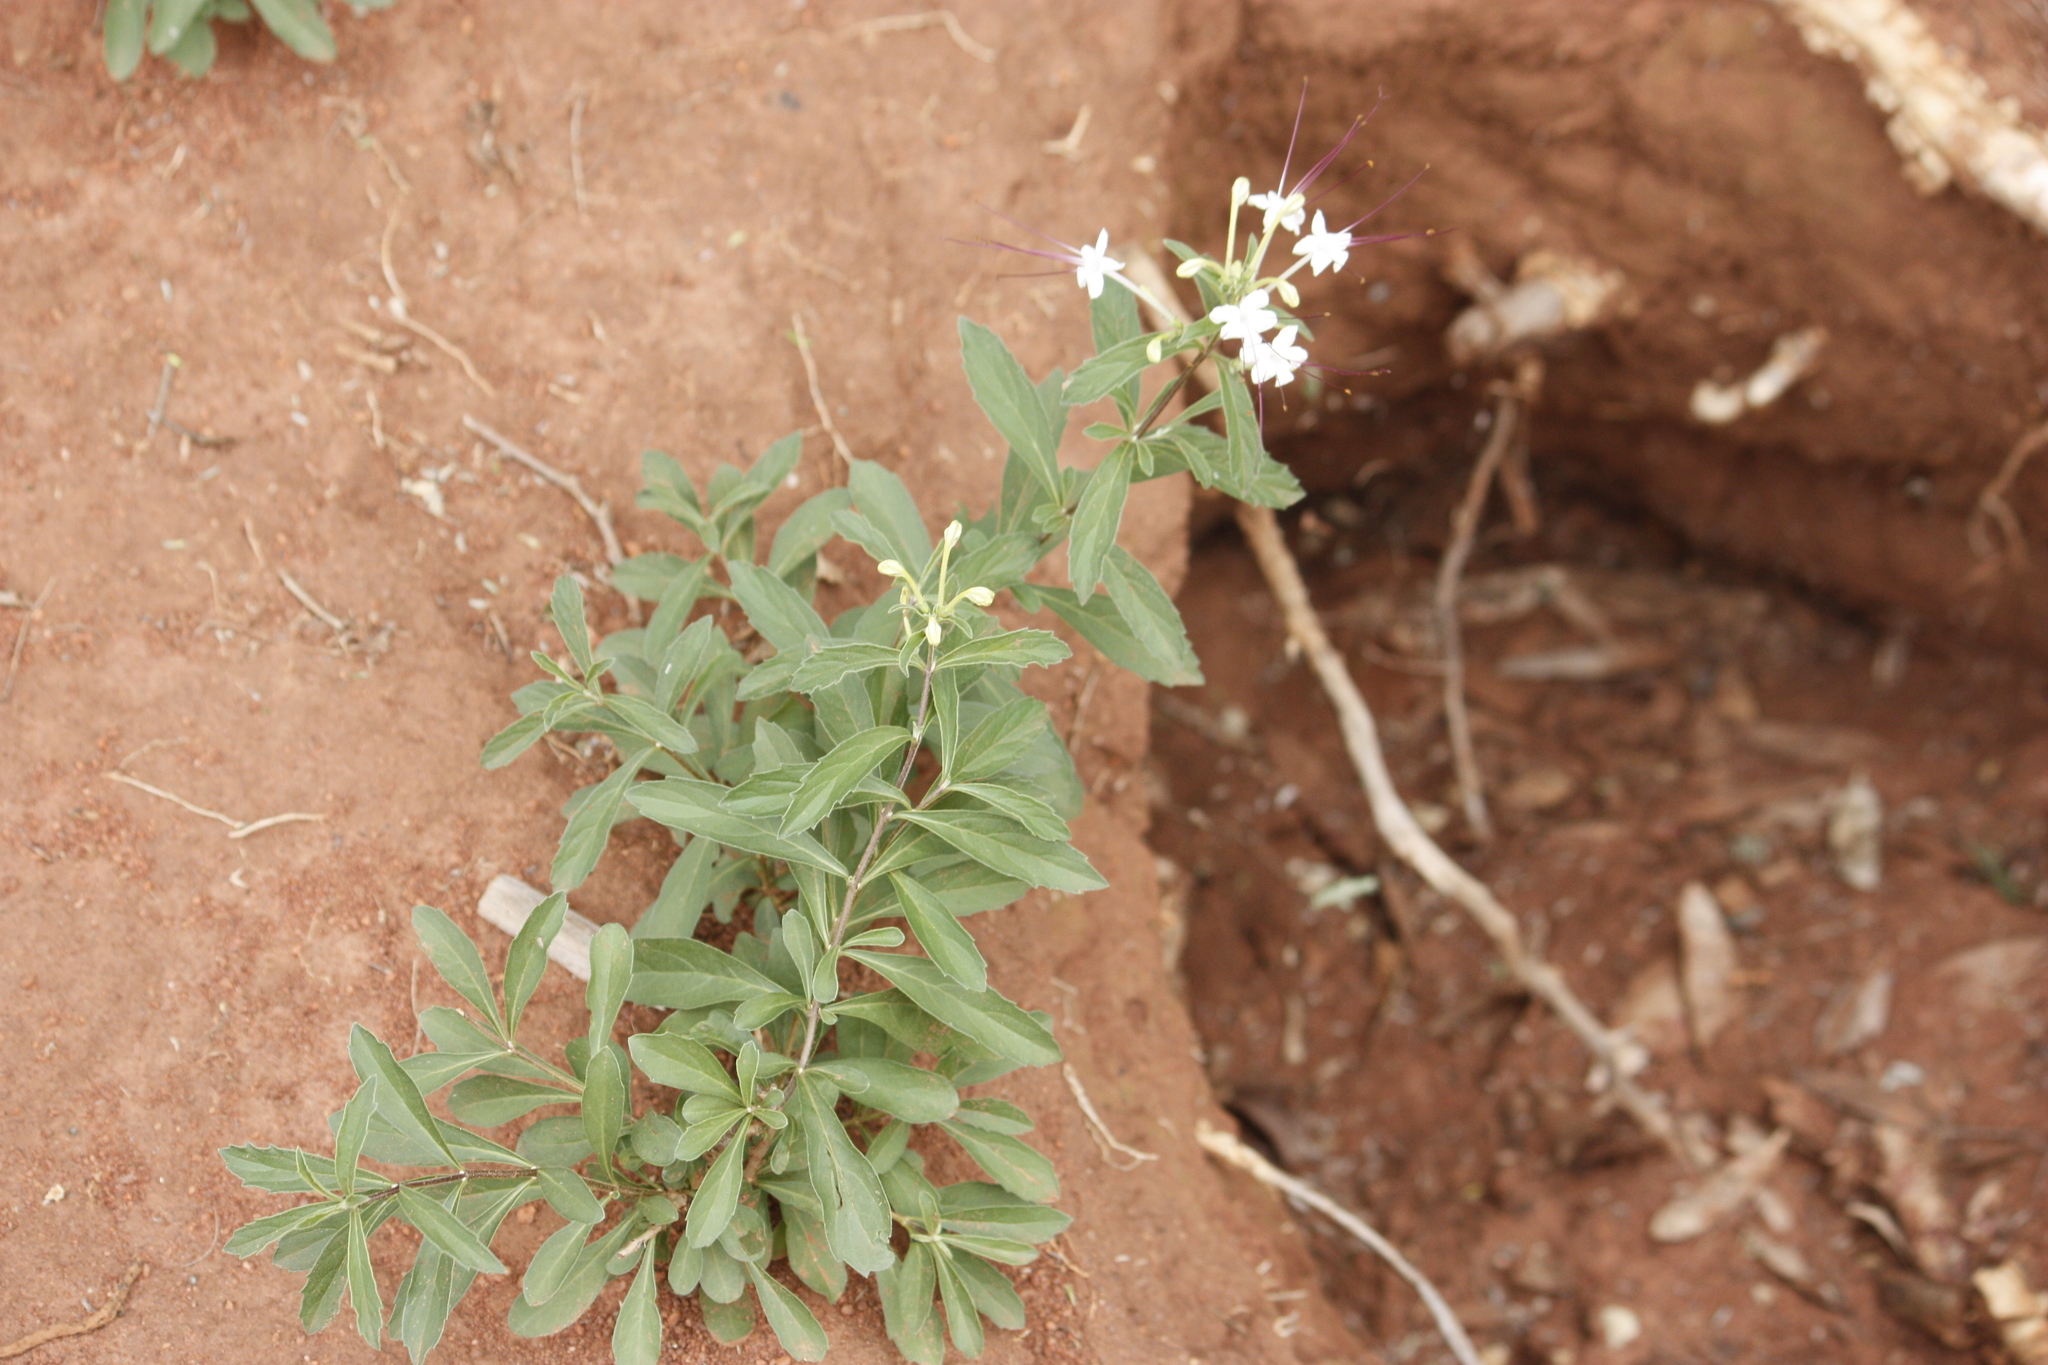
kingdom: Plantae
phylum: Tracheophyta
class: Magnoliopsida
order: Lamiales
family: Lamiaceae
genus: Clerodendrum
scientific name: Clerodendrum ternatum
